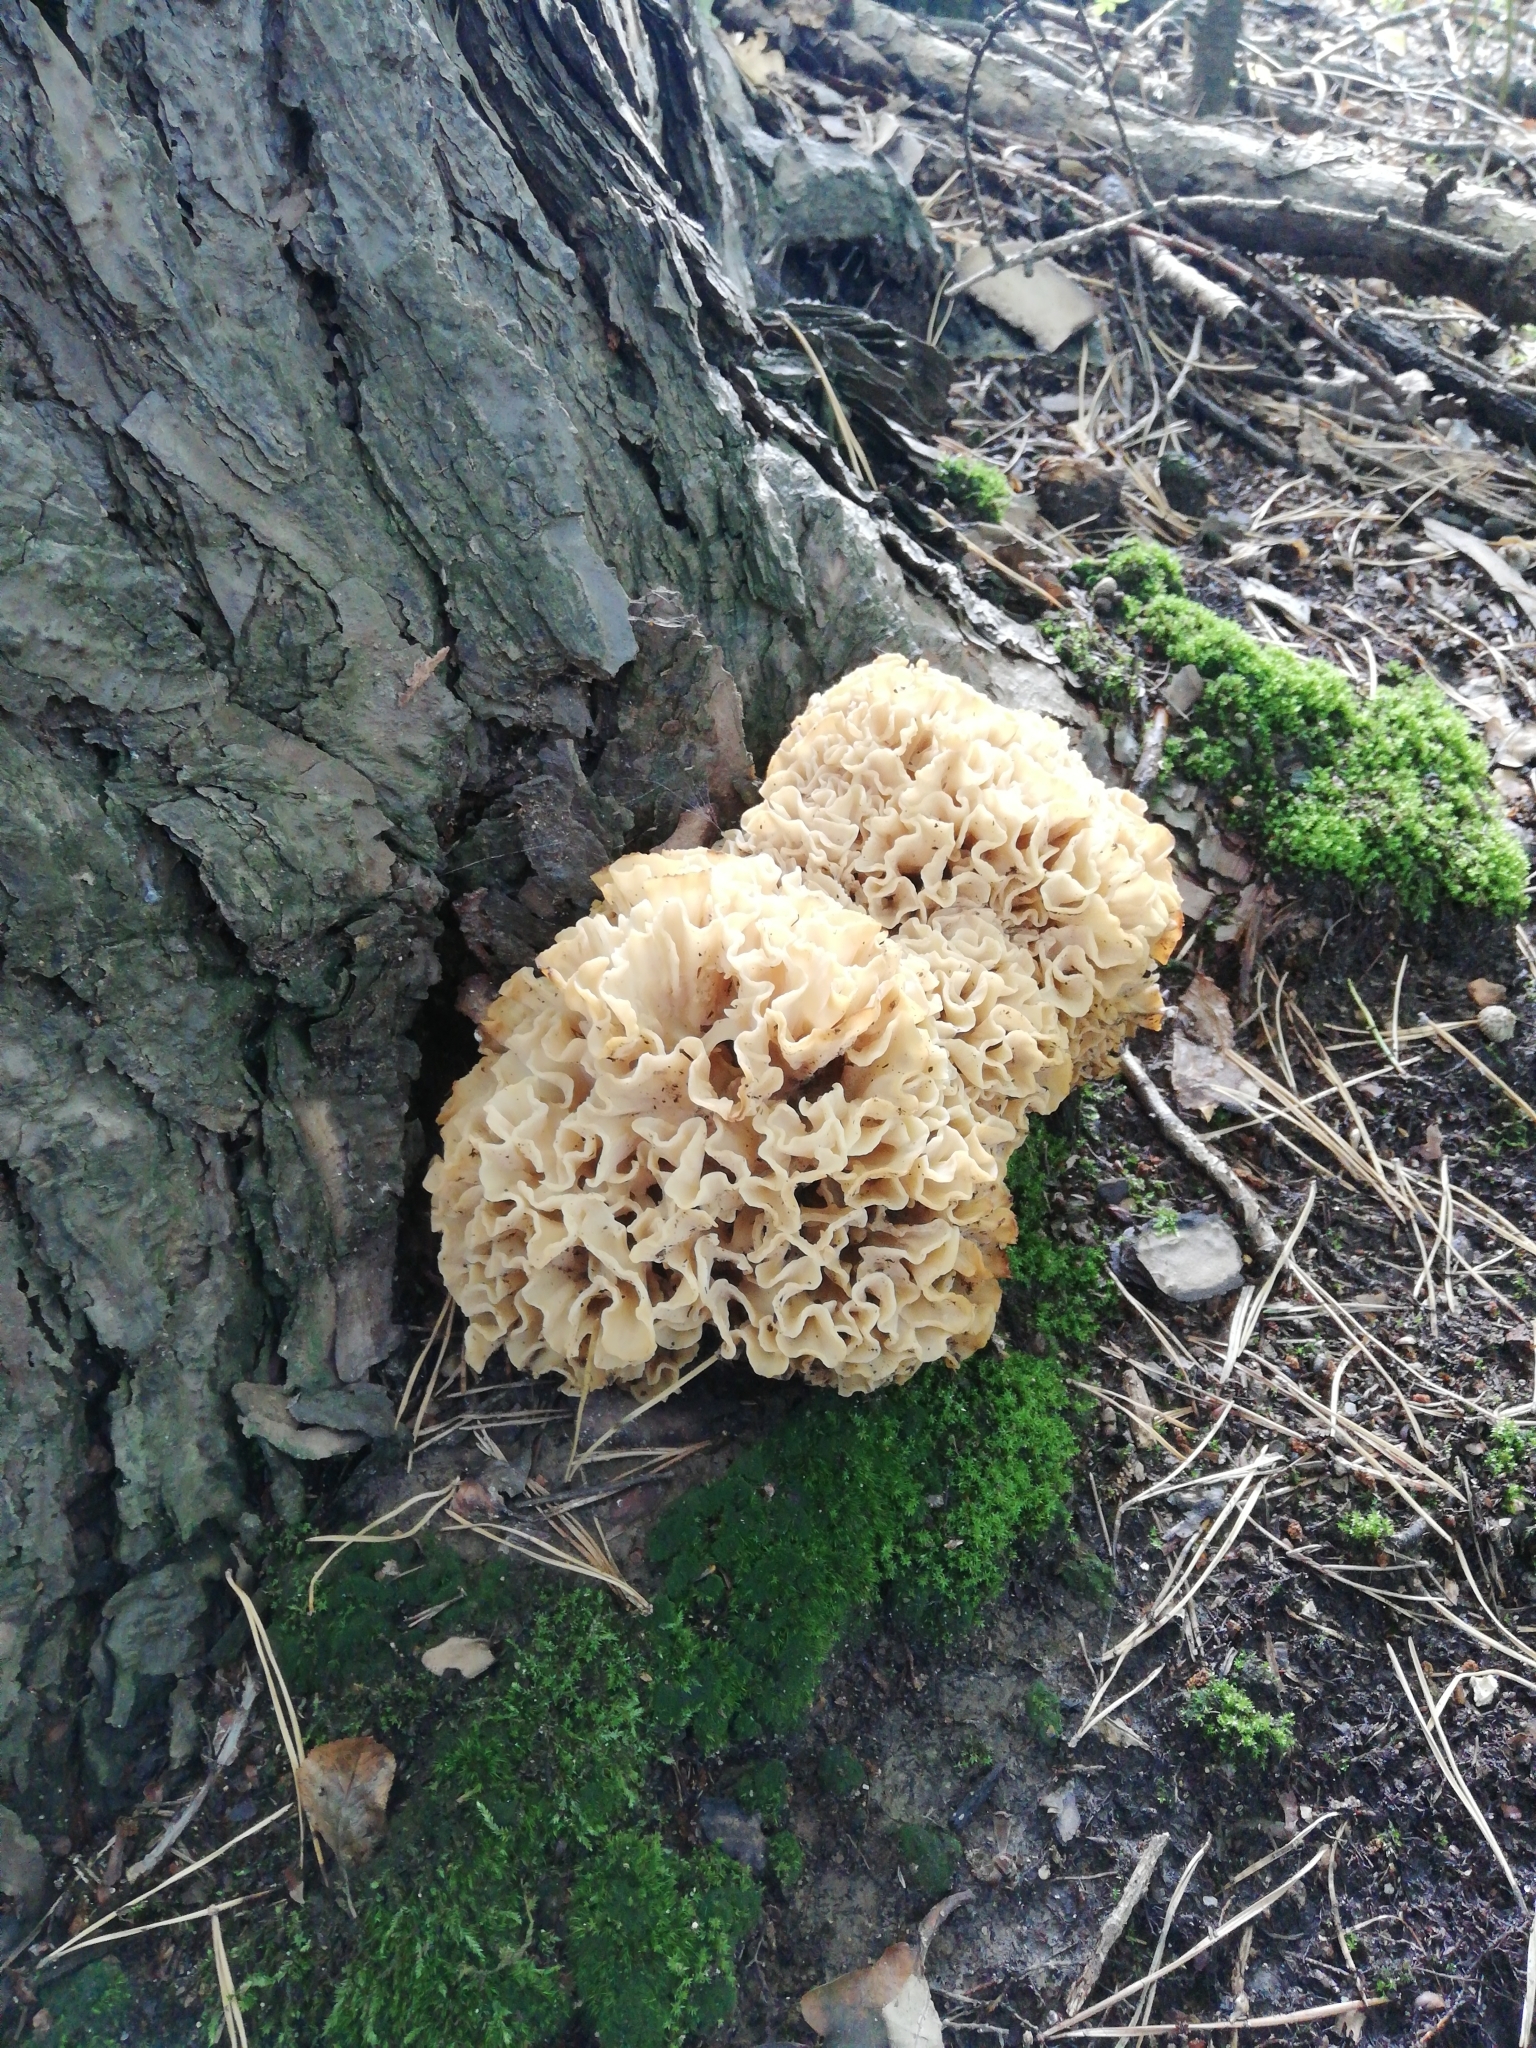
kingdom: Fungi
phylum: Basidiomycota
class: Agaricomycetes
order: Polyporales
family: Sparassidaceae
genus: Sparassis
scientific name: Sparassis crispa
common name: Brain fungus
